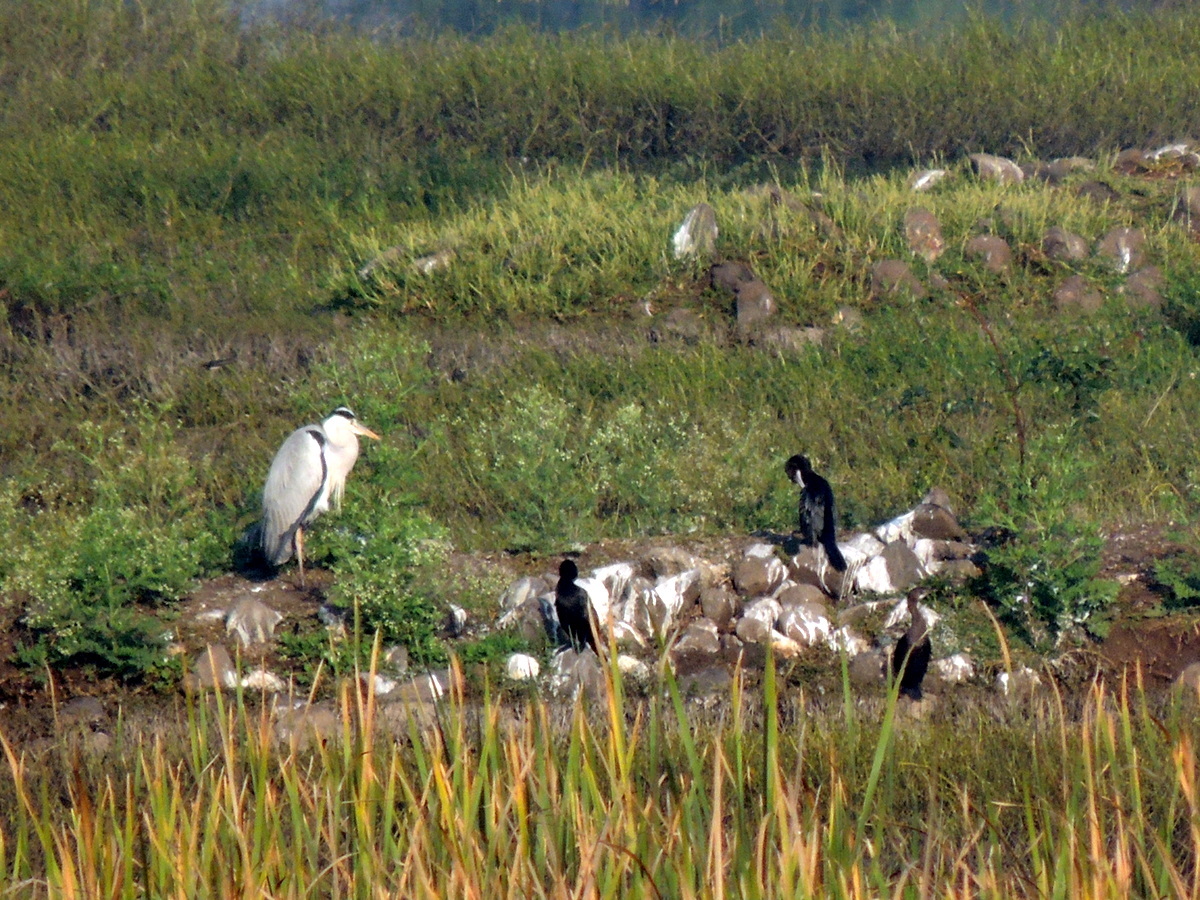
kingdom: Animalia
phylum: Chordata
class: Aves
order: Pelecaniformes
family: Ardeidae
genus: Ardea
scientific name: Ardea cinerea
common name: Grey heron
